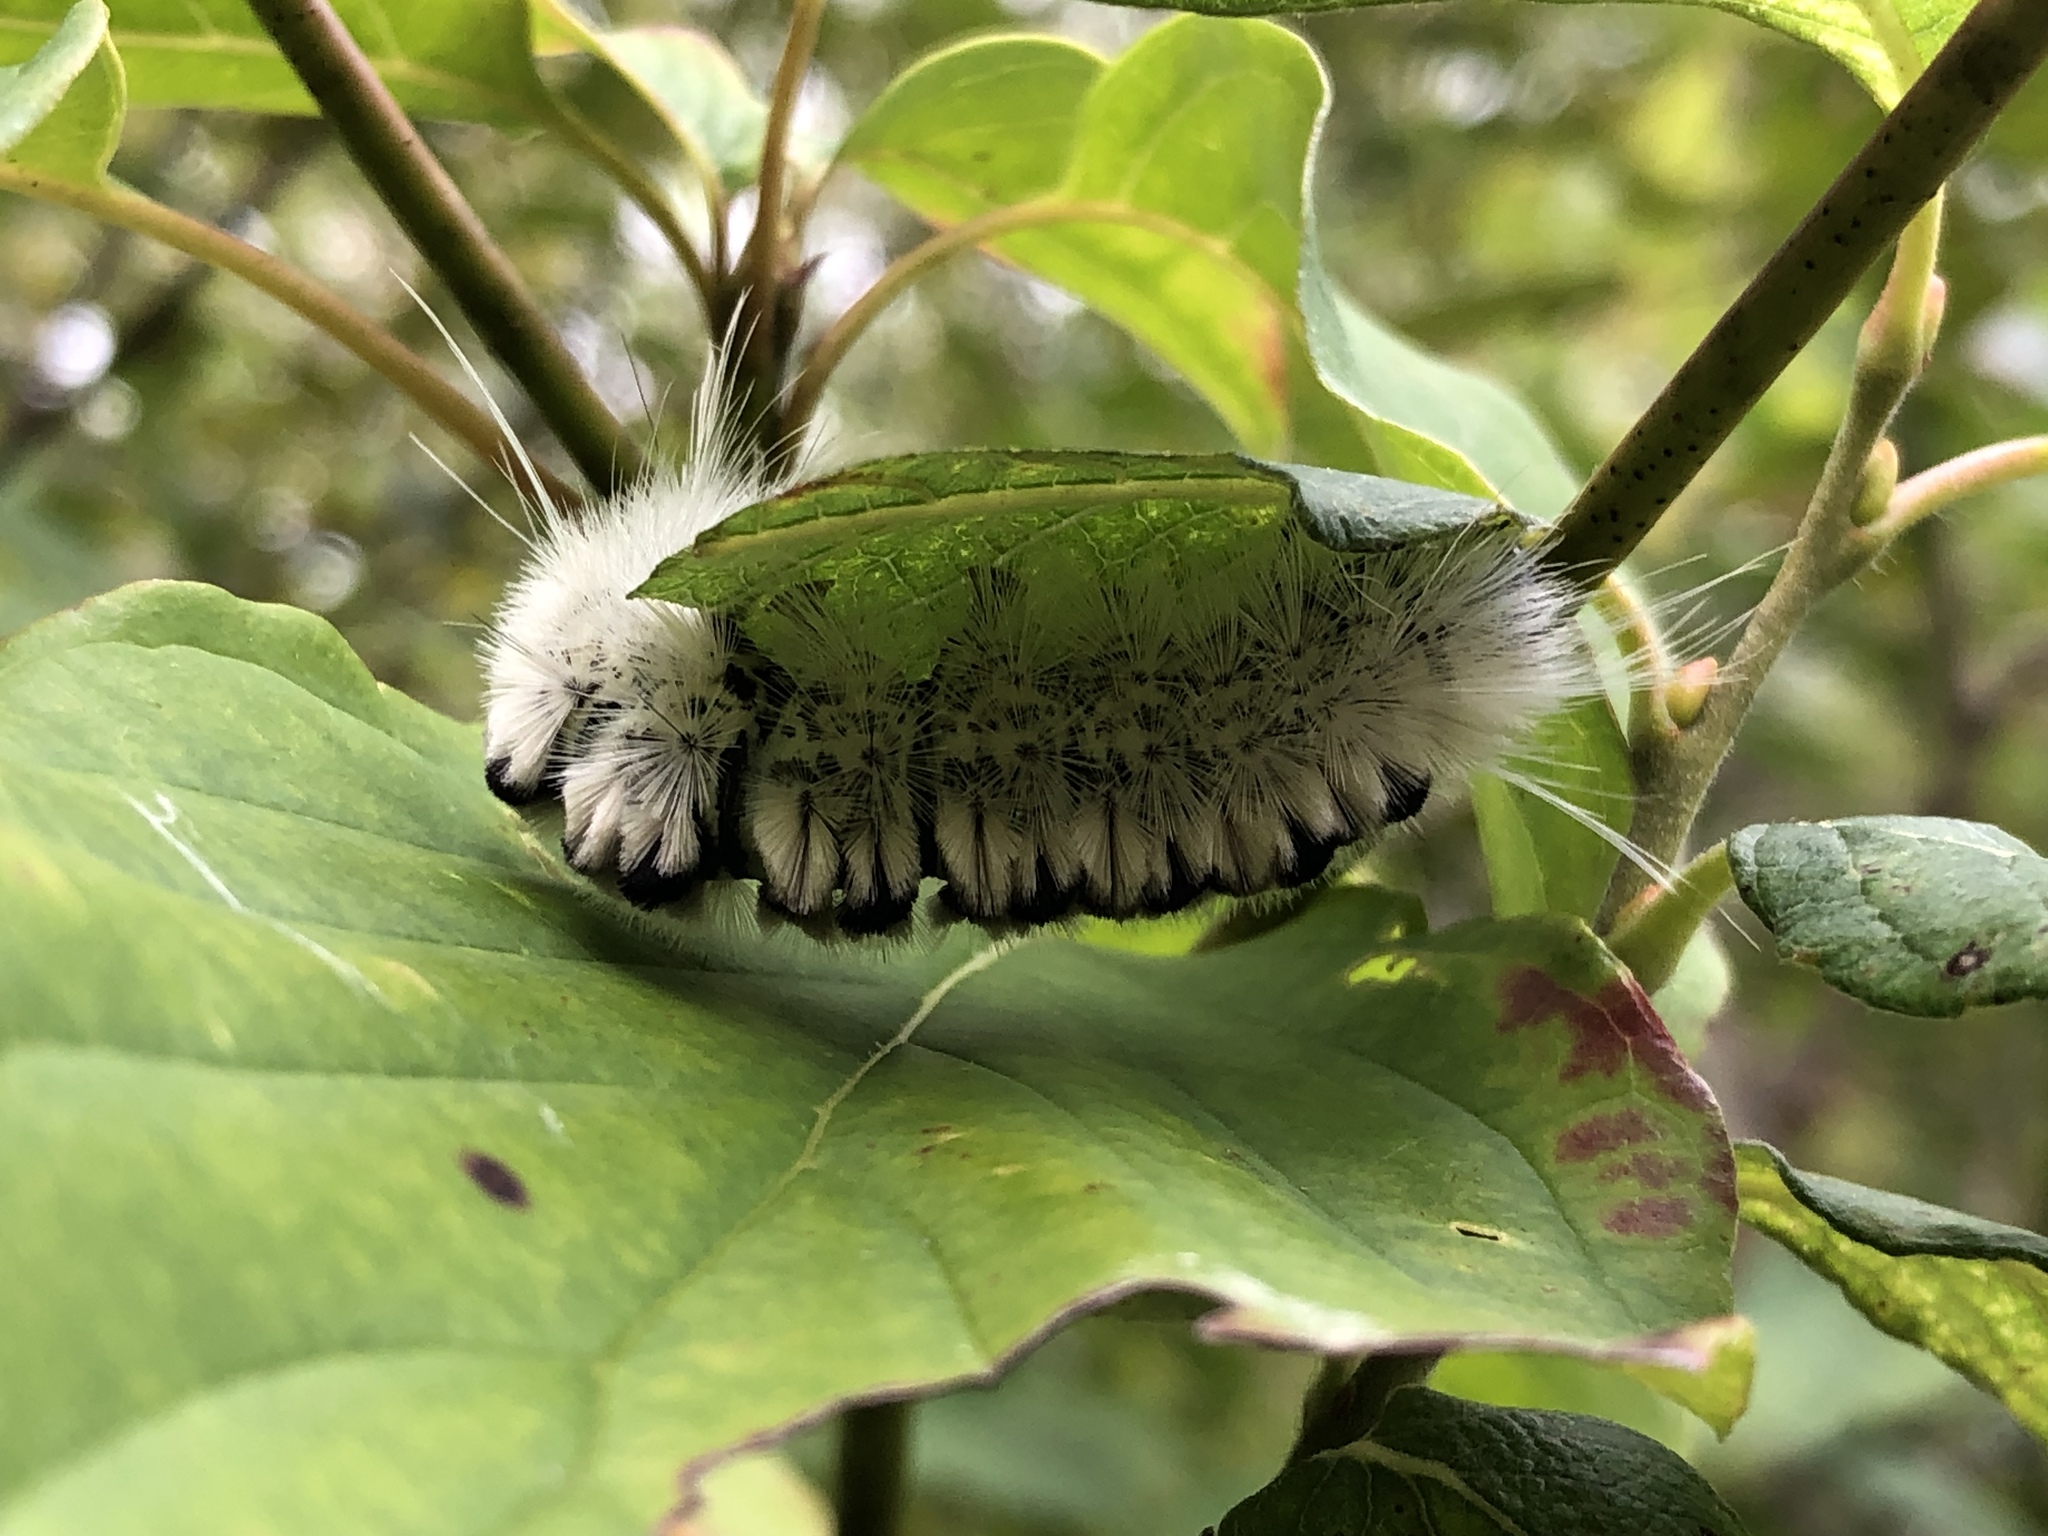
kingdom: Animalia
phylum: Arthropoda
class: Insecta
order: Lepidoptera
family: Erebidae
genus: Lophocampa
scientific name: Lophocampa caryae
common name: Hickory tussock moth
